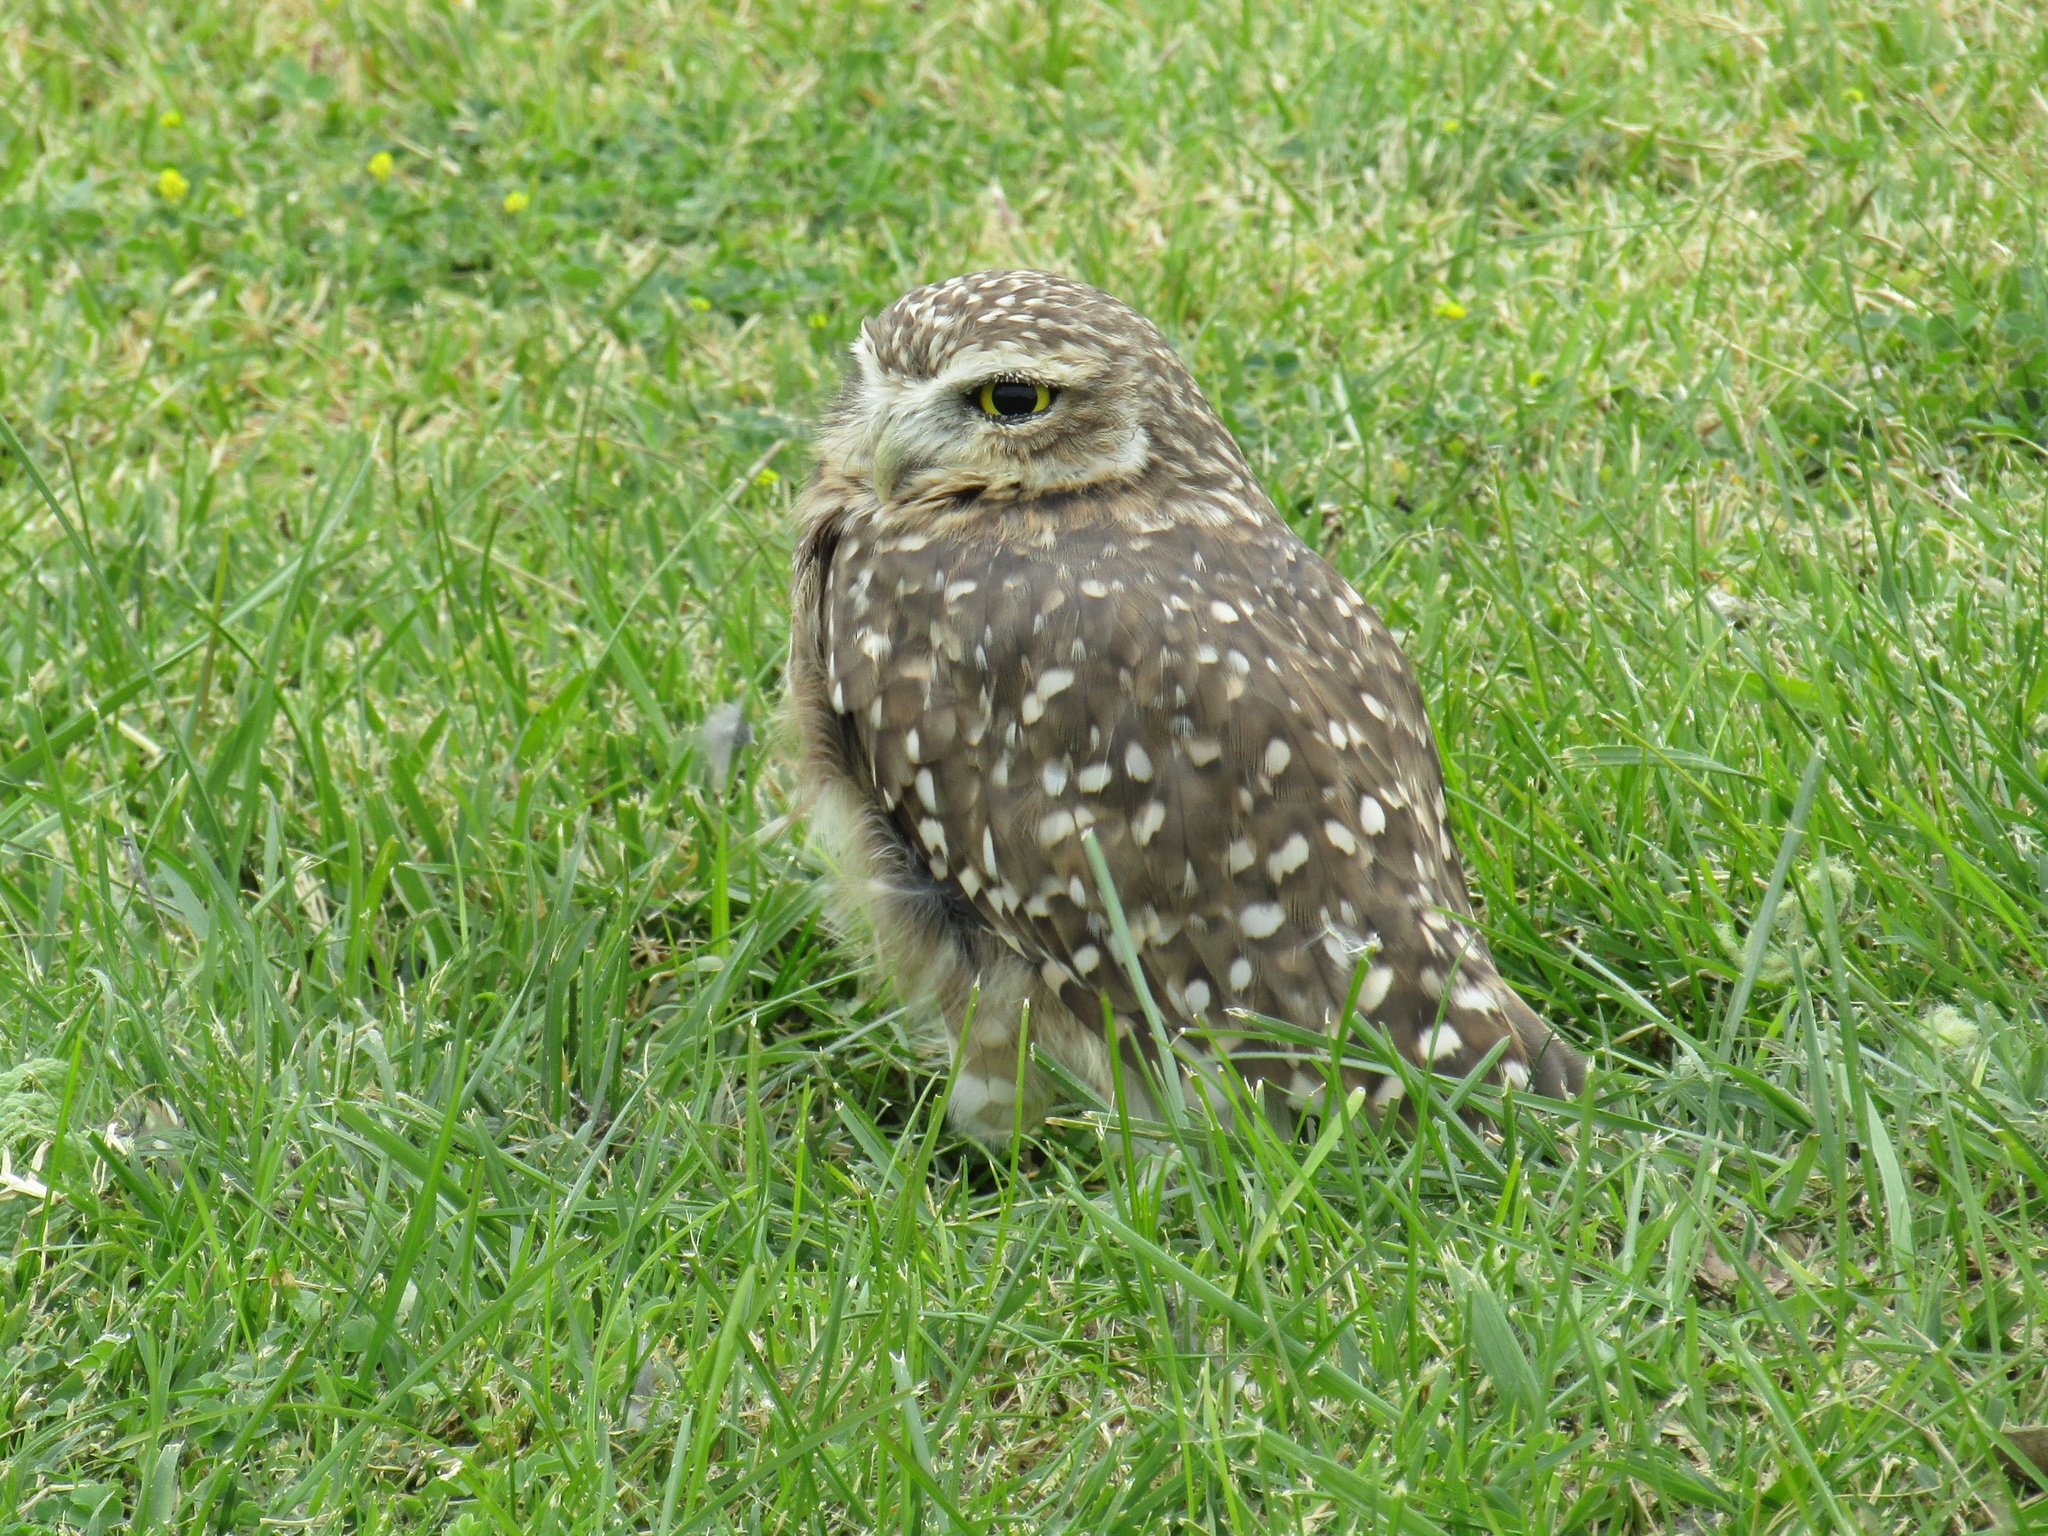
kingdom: Animalia
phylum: Chordata
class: Aves
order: Strigiformes
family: Strigidae
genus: Athene
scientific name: Athene cunicularia
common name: Burrowing owl
